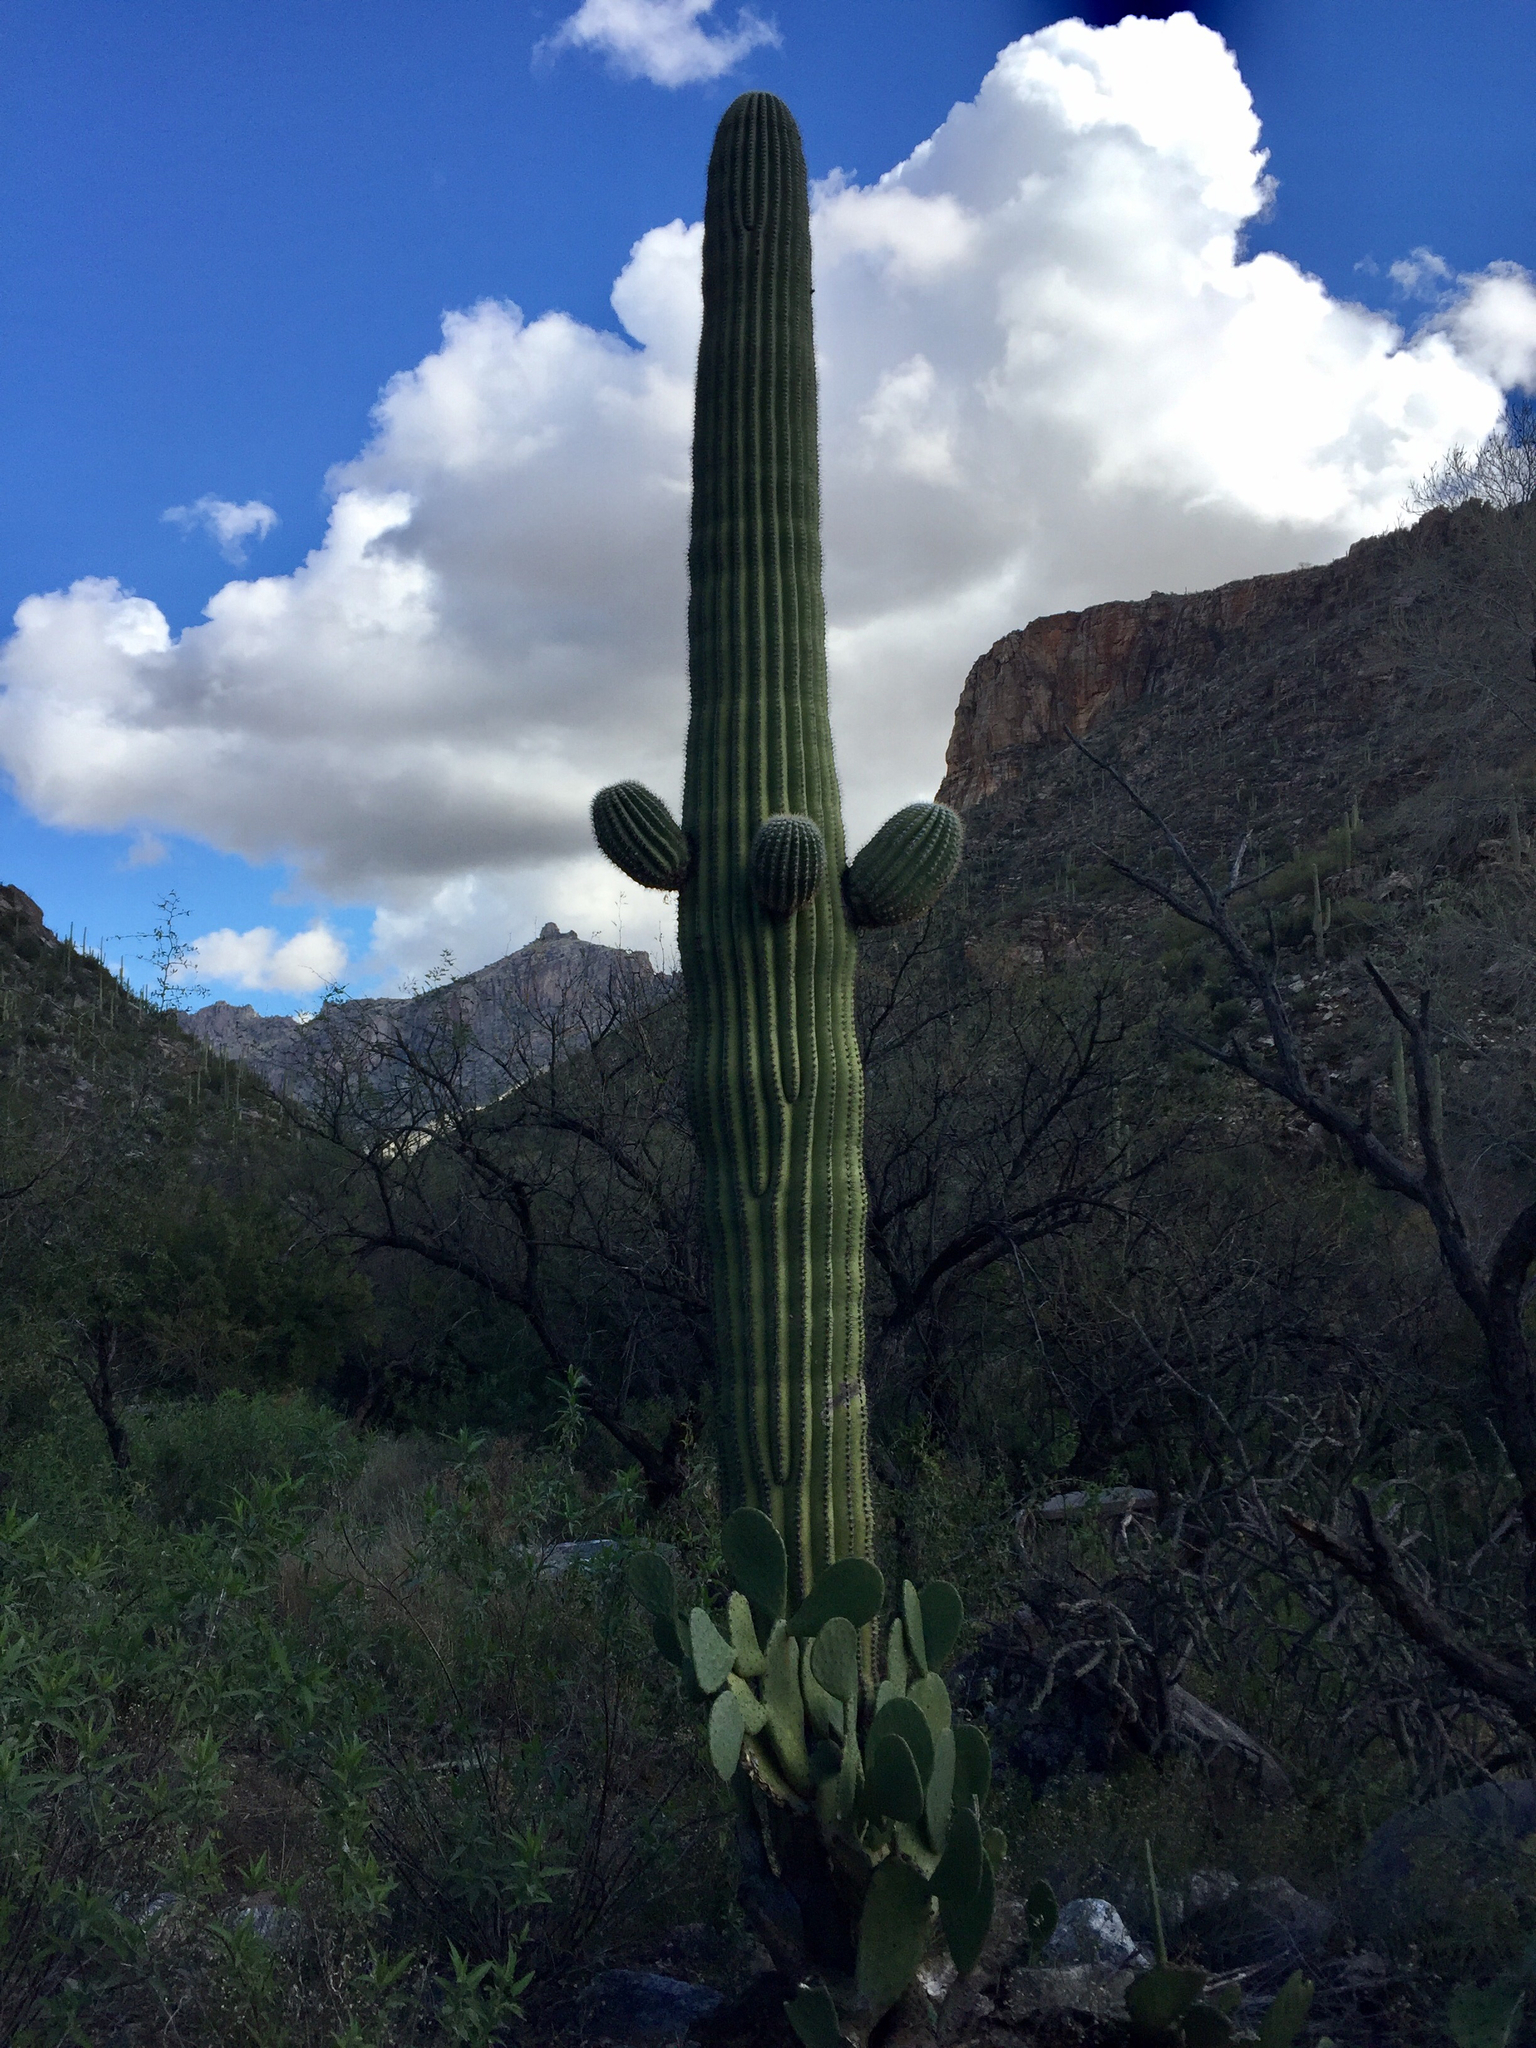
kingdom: Plantae
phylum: Tracheophyta
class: Magnoliopsida
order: Caryophyllales
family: Cactaceae
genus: Carnegiea
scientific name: Carnegiea gigantea
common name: Saguaro
